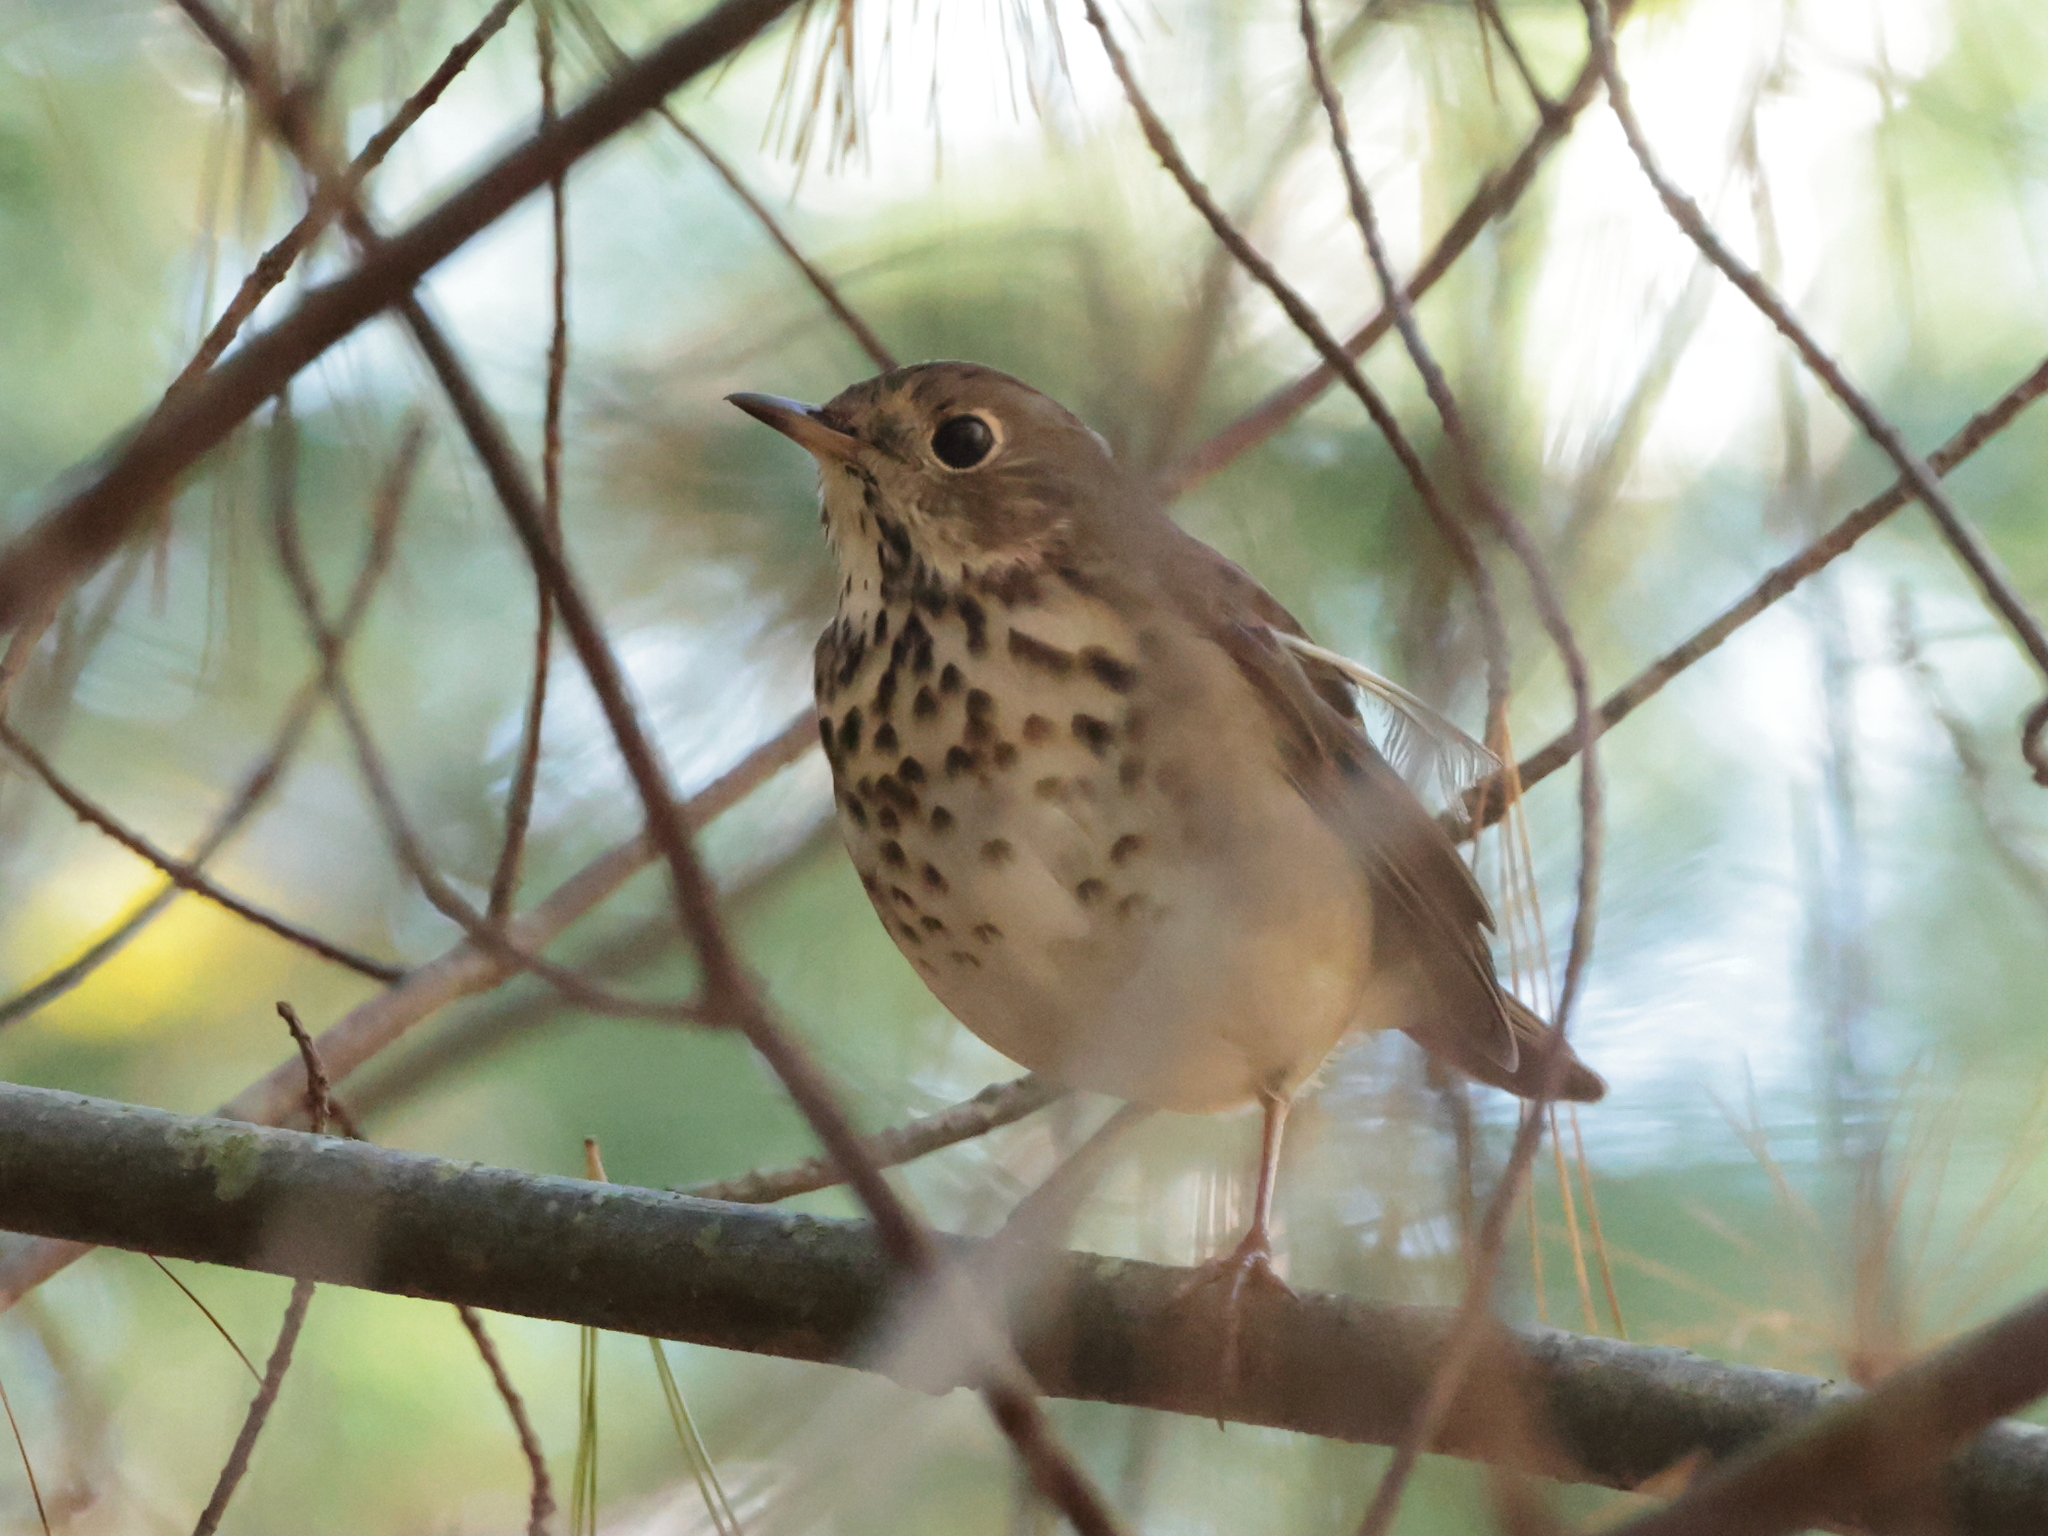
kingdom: Animalia
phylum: Chordata
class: Aves
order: Passeriformes
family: Turdidae
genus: Catharus
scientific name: Catharus guttatus
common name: Hermit thrush
